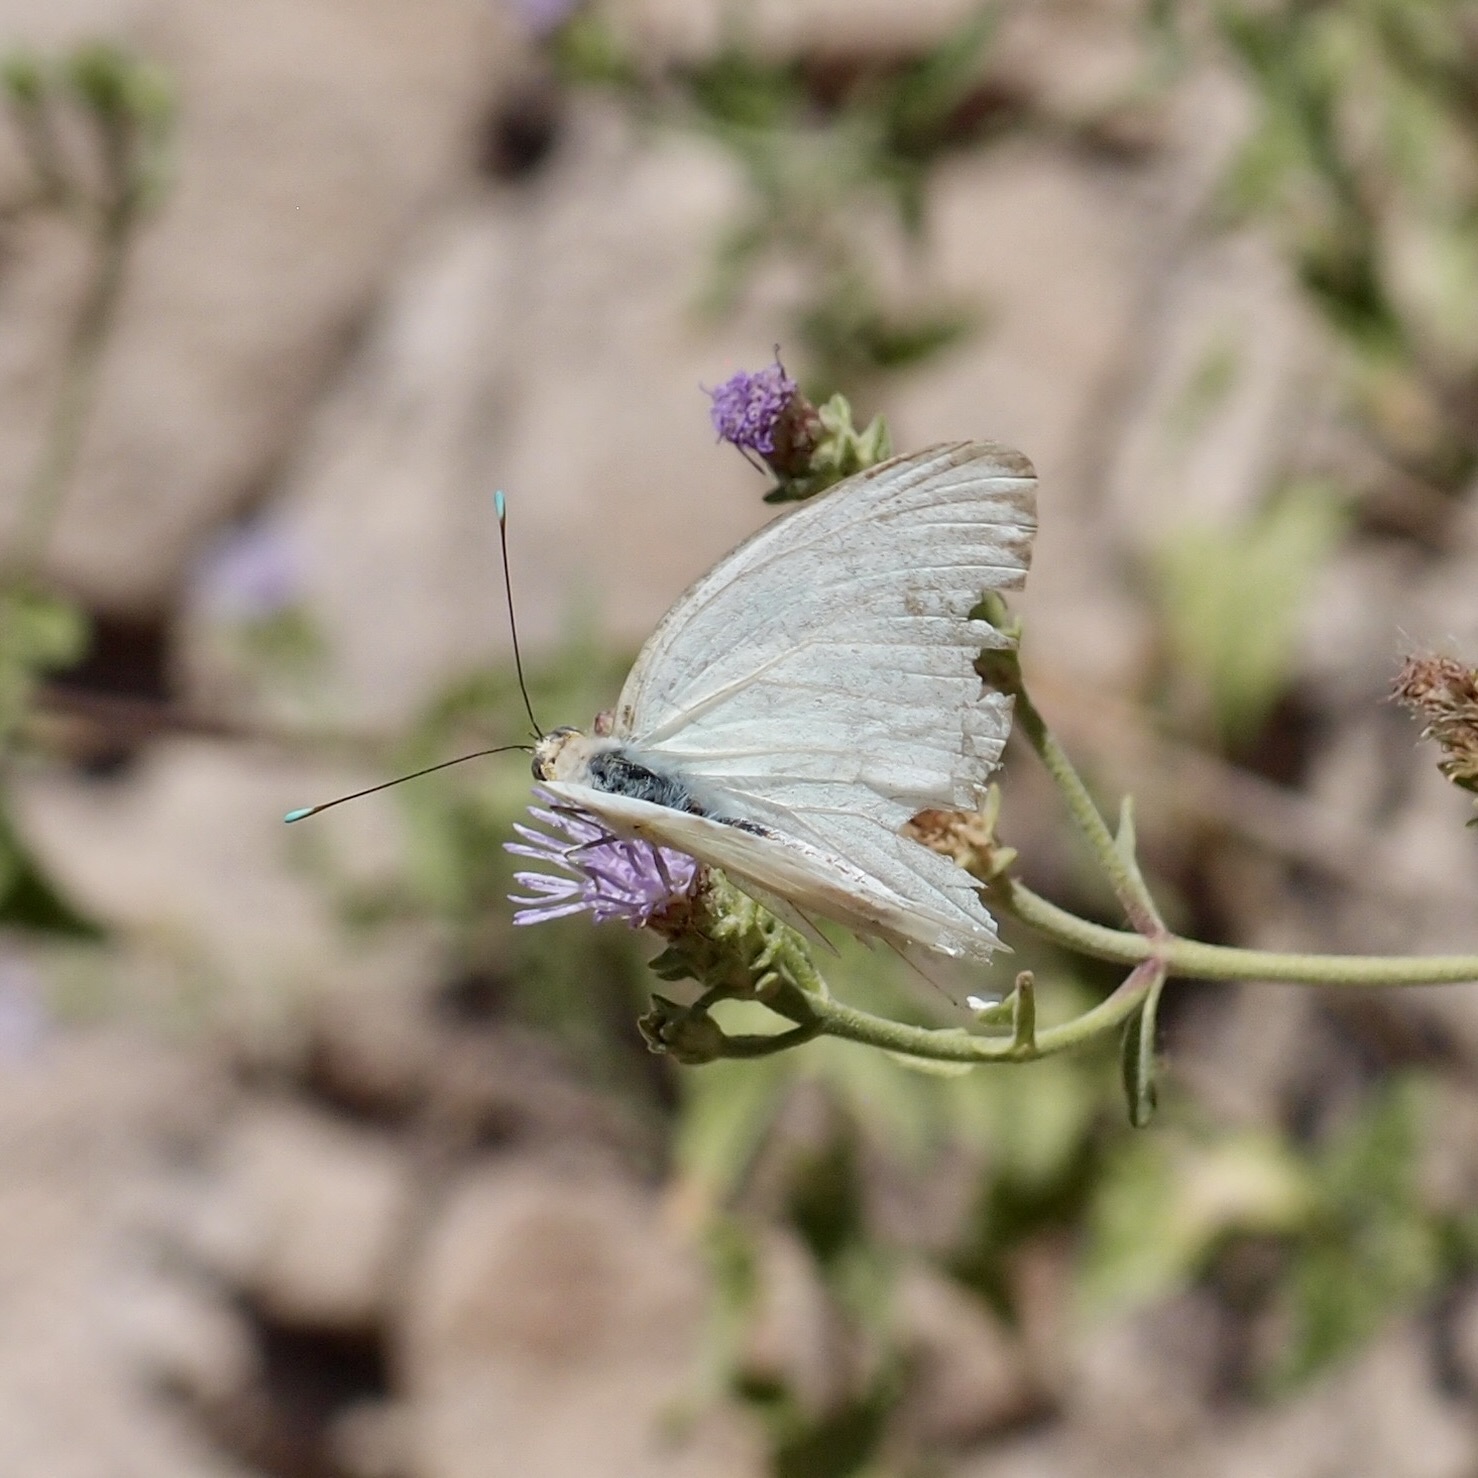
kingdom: Animalia
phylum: Arthropoda
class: Insecta
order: Lepidoptera
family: Pieridae
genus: Ascia
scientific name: Ascia monuste
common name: Great southern white
